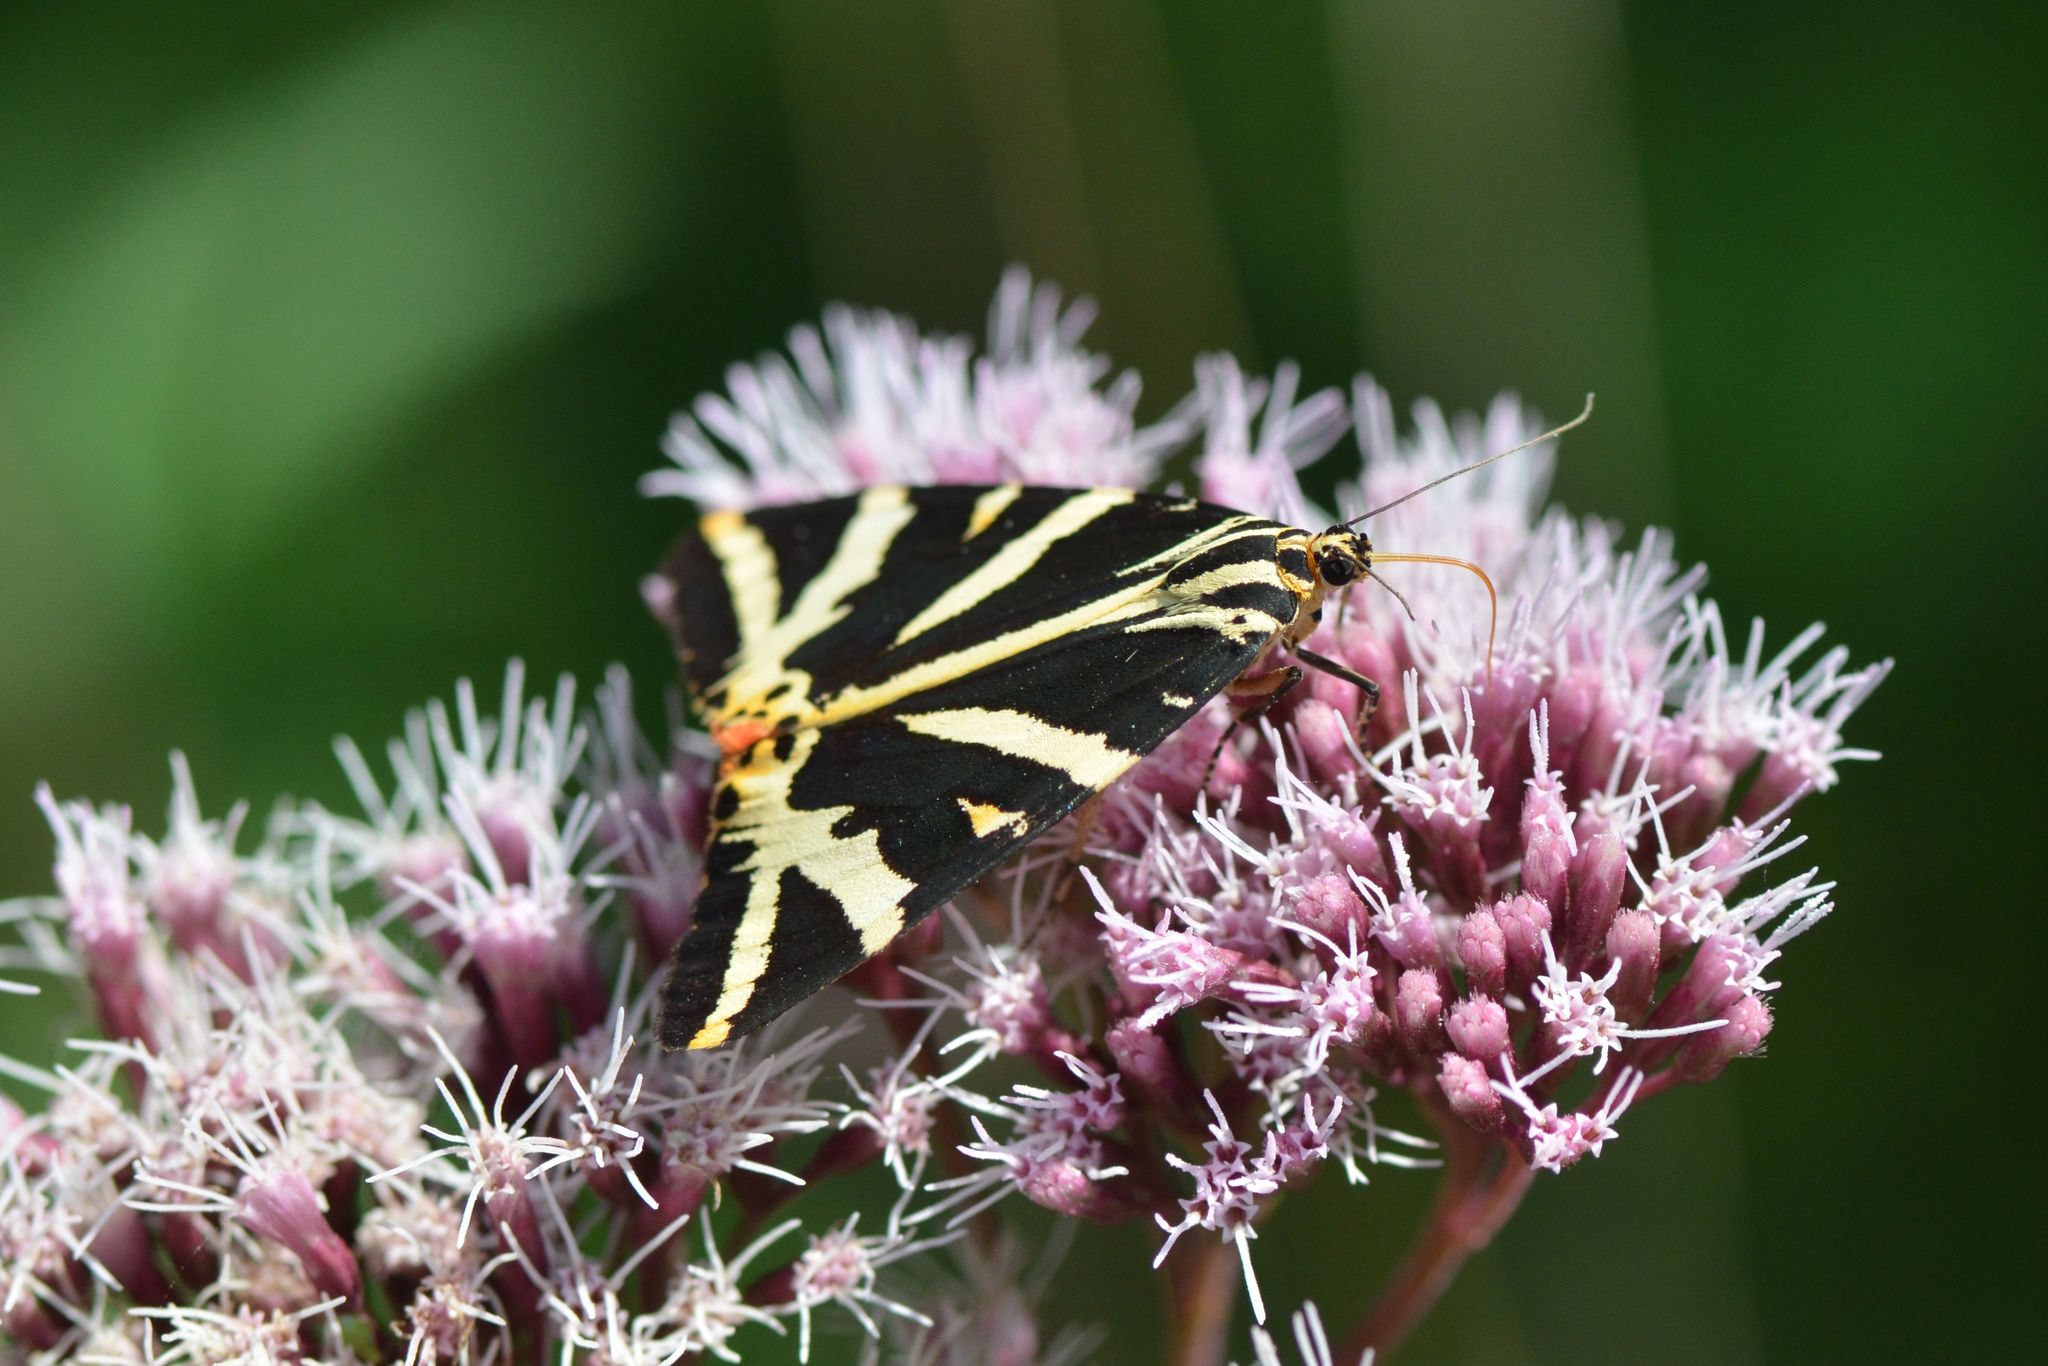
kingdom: Animalia
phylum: Arthropoda
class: Insecta
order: Lepidoptera
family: Erebidae
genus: Euplagia
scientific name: Euplagia quadripunctaria
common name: Jersey tiger
